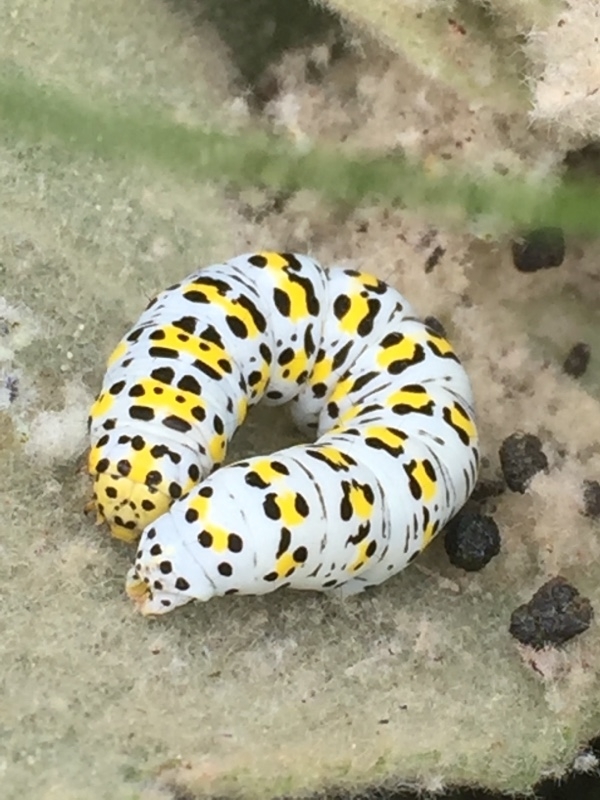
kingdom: Animalia
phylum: Arthropoda
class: Insecta
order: Lepidoptera
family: Noctuidae
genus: Cucullia
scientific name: Cucullia verbasci
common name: Mullein
